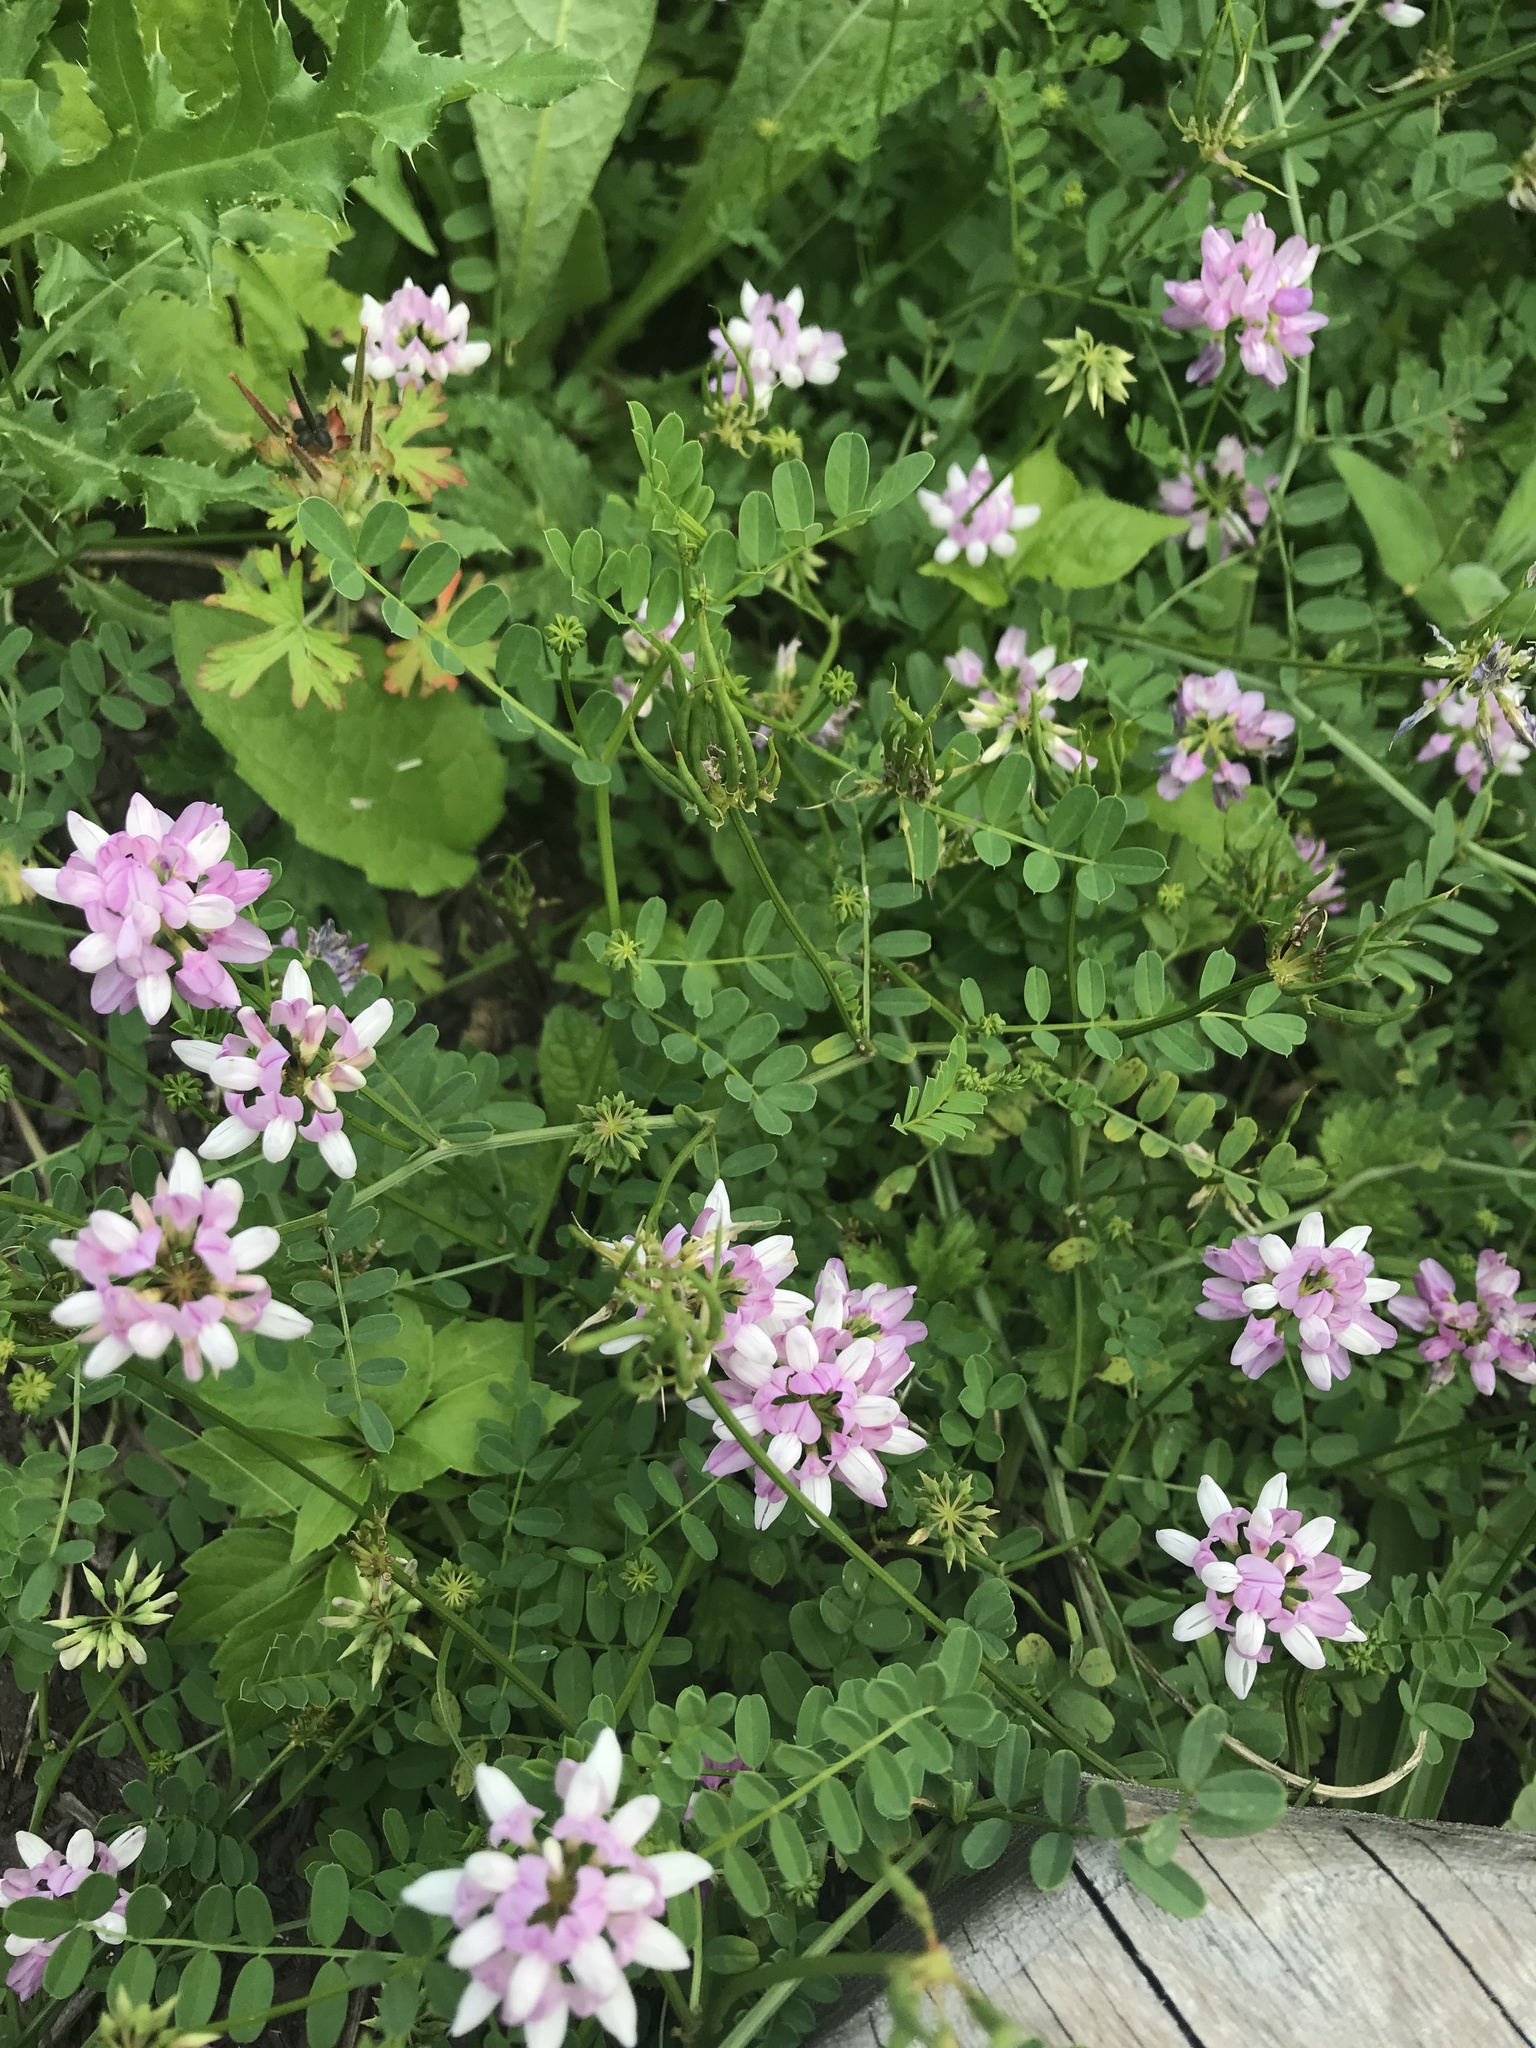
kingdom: Plantae
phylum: Tracheophyta
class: Magnoliopsida
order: Fabales
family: Fabaceae
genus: Coronilla
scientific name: Coronilla varia
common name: Crownvetch
